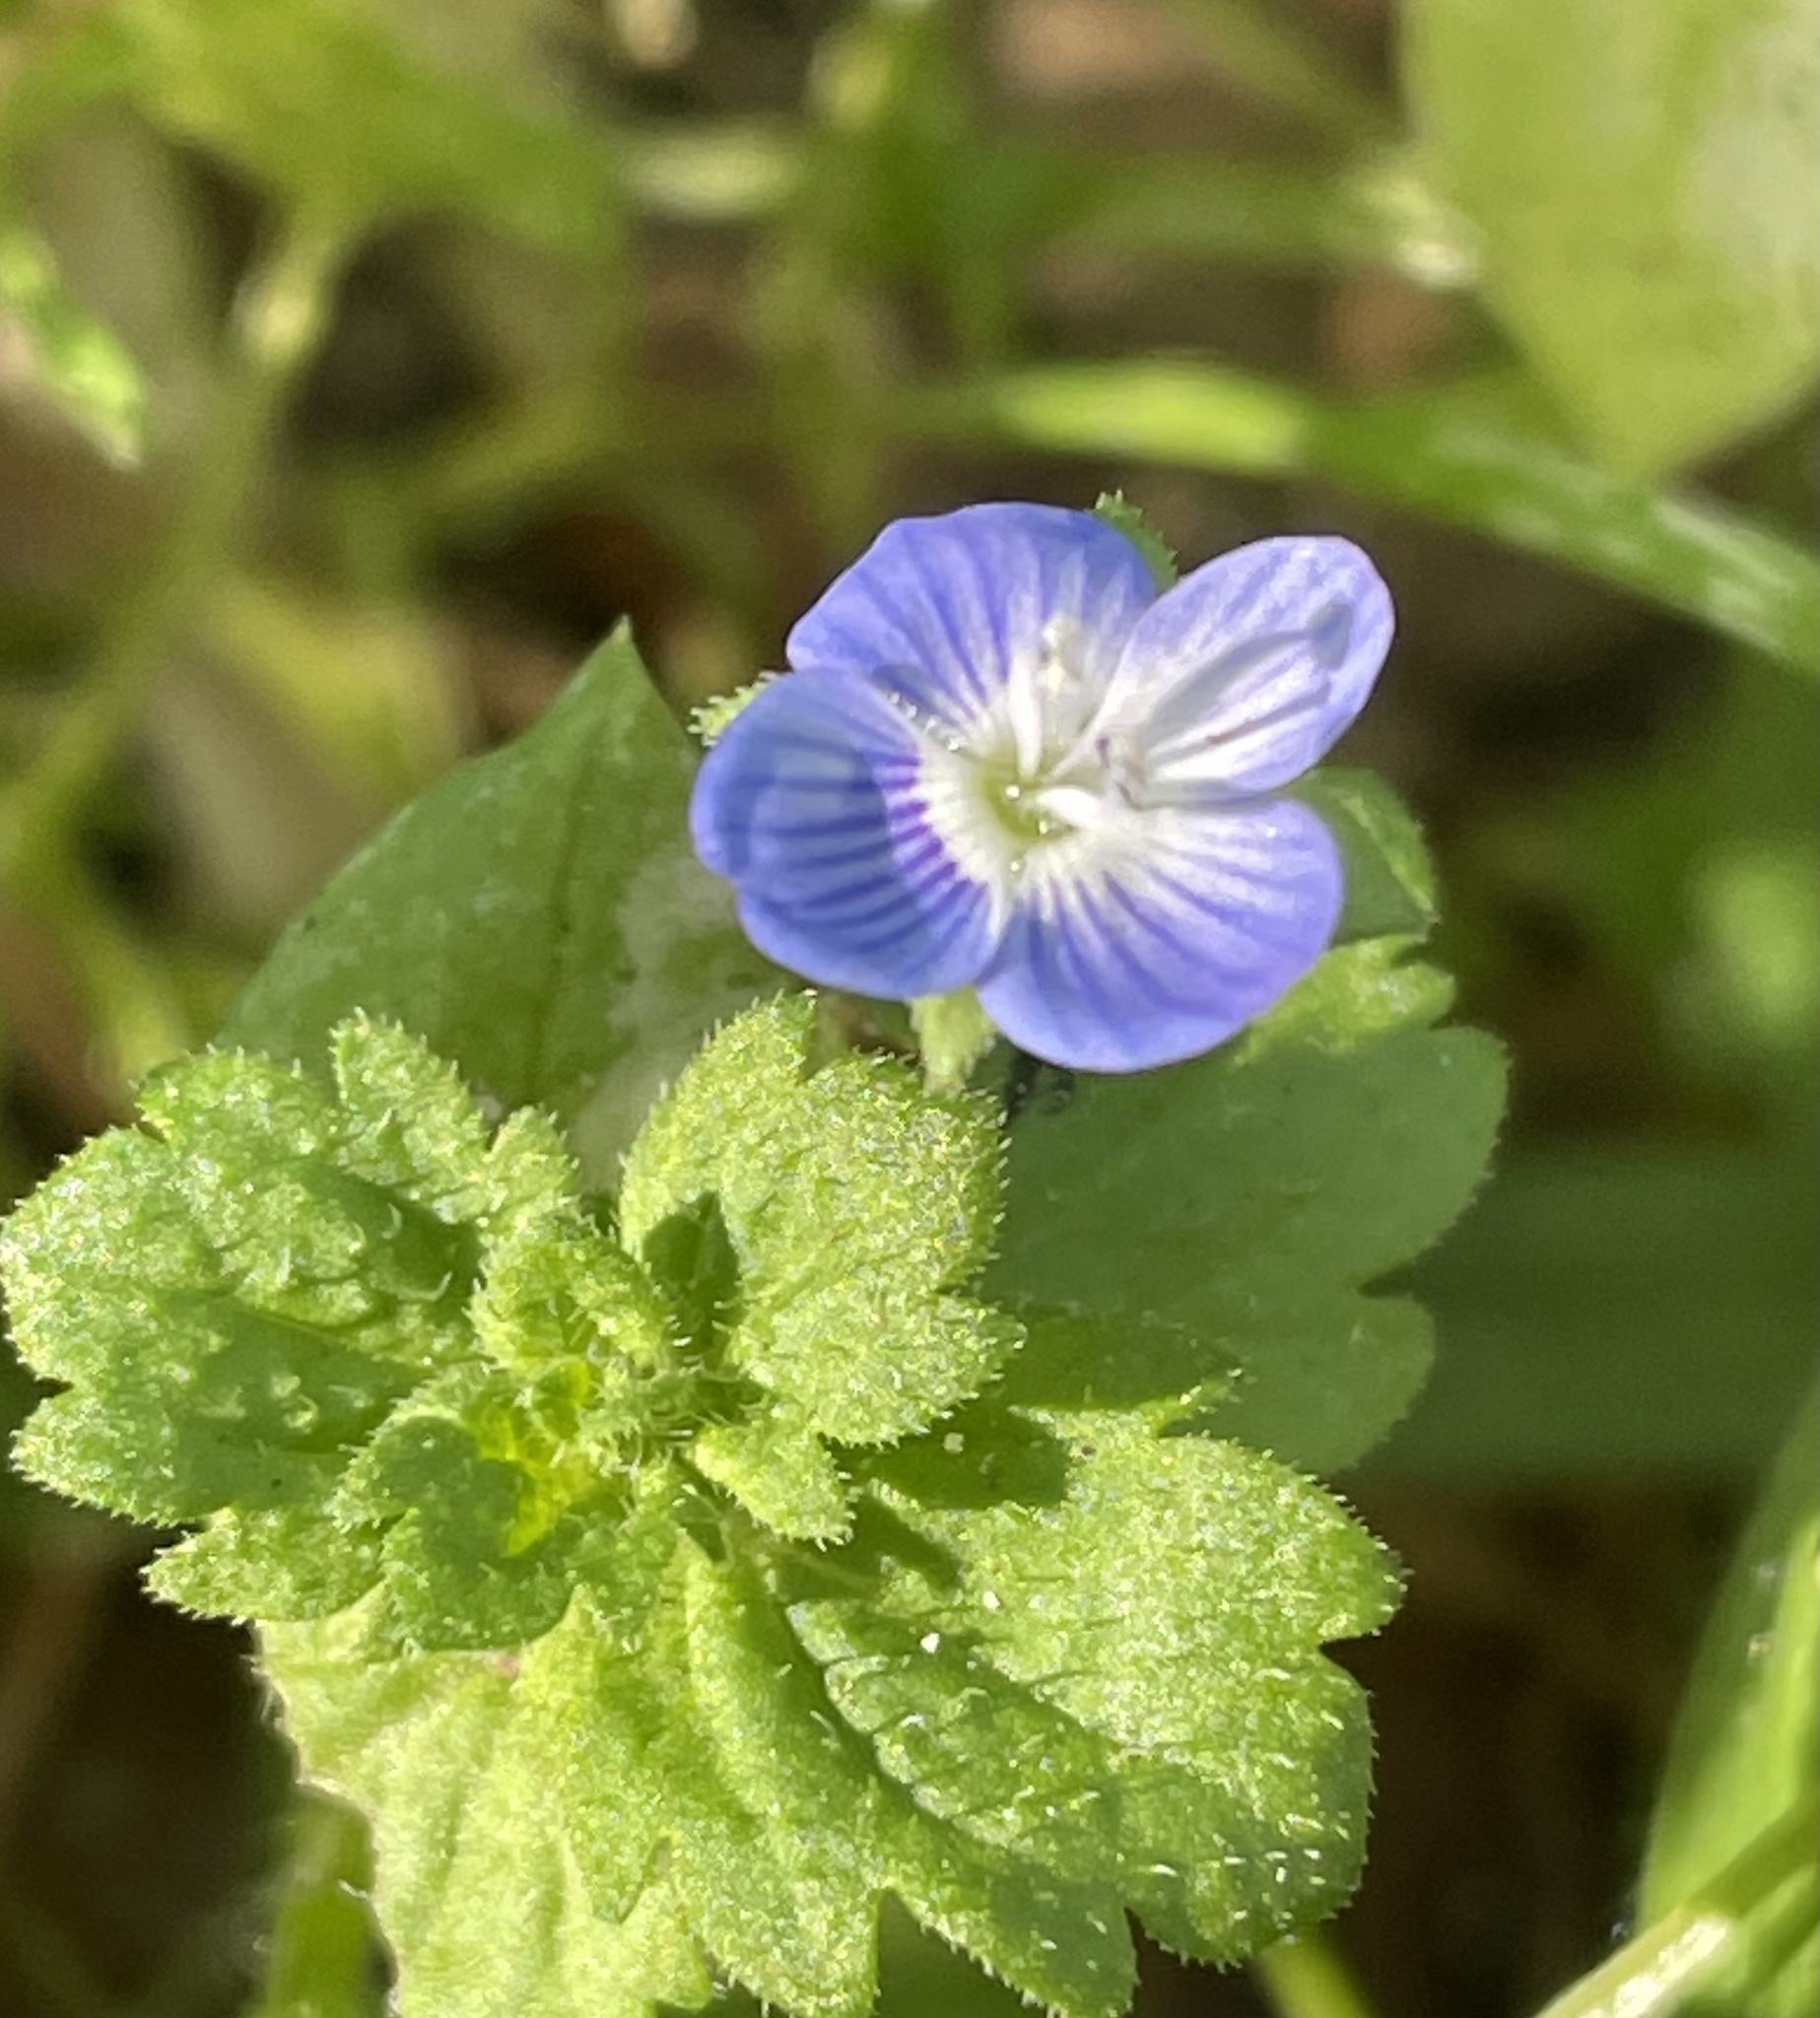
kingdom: Plantae
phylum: Tracheophyta
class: Magnoliopsida
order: Lamiales
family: Plantaginaceae
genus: Veronica
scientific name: Veronica persica
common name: Common field-speedwell
